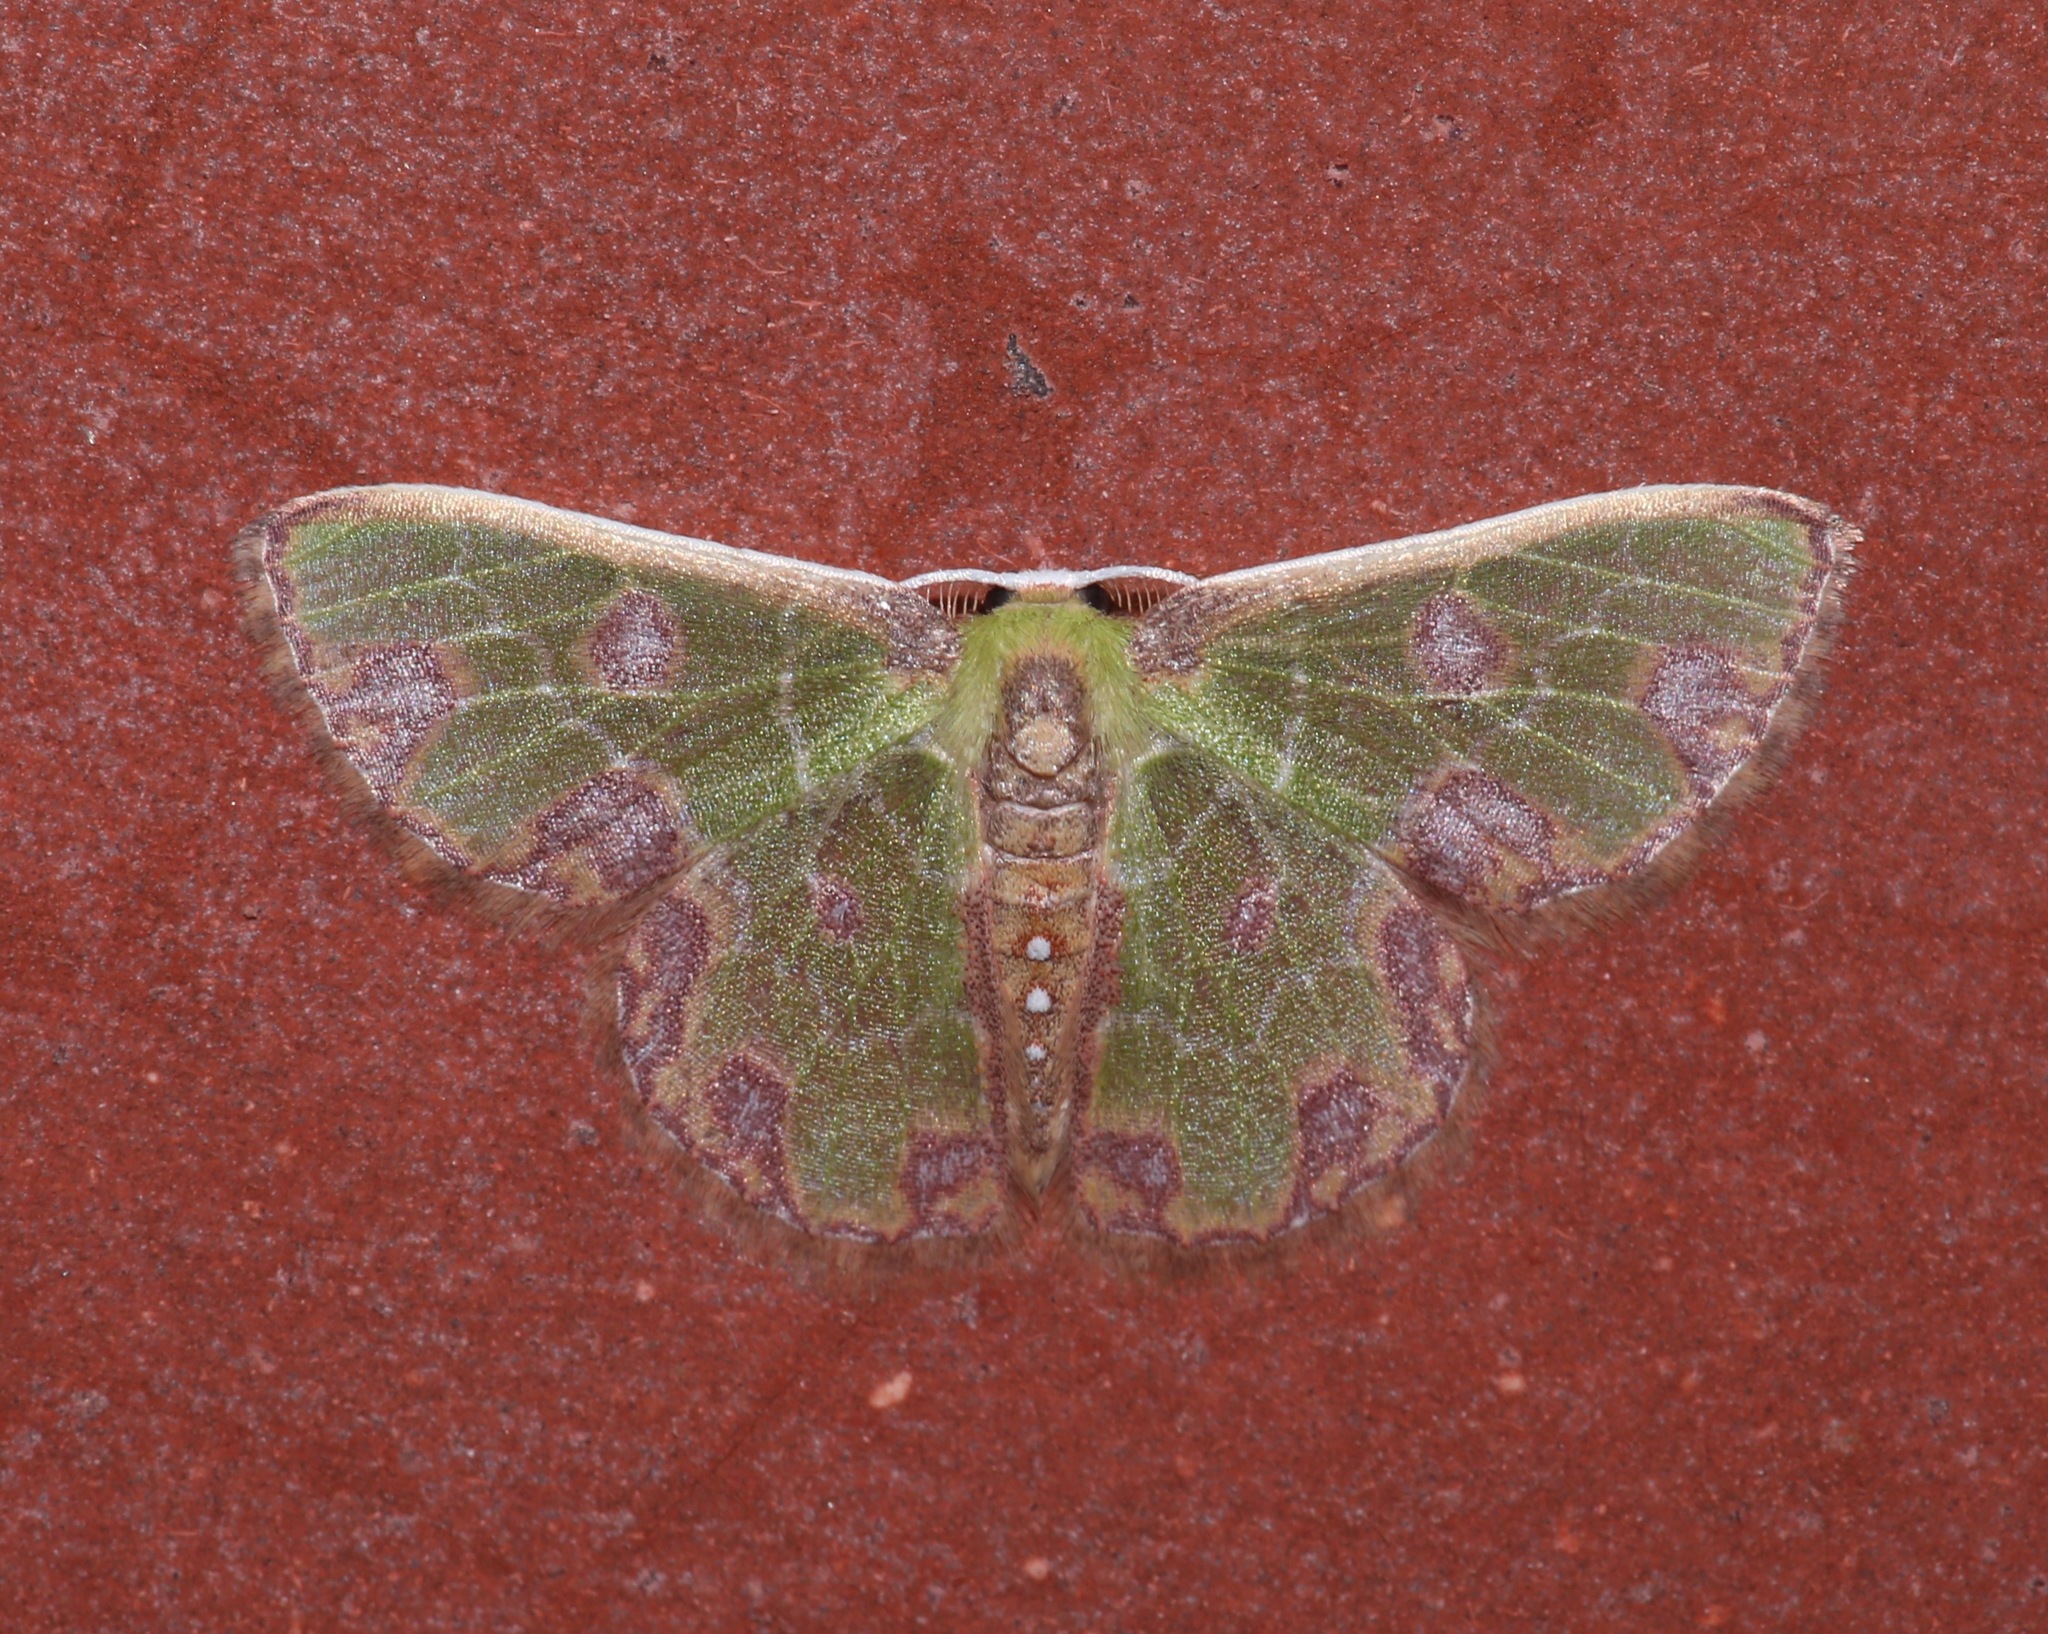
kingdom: Animalia
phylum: Arthropoda
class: Insecta
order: Lepidoptera
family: Geometridae
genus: Synchlora
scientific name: Synchlora gerularia
